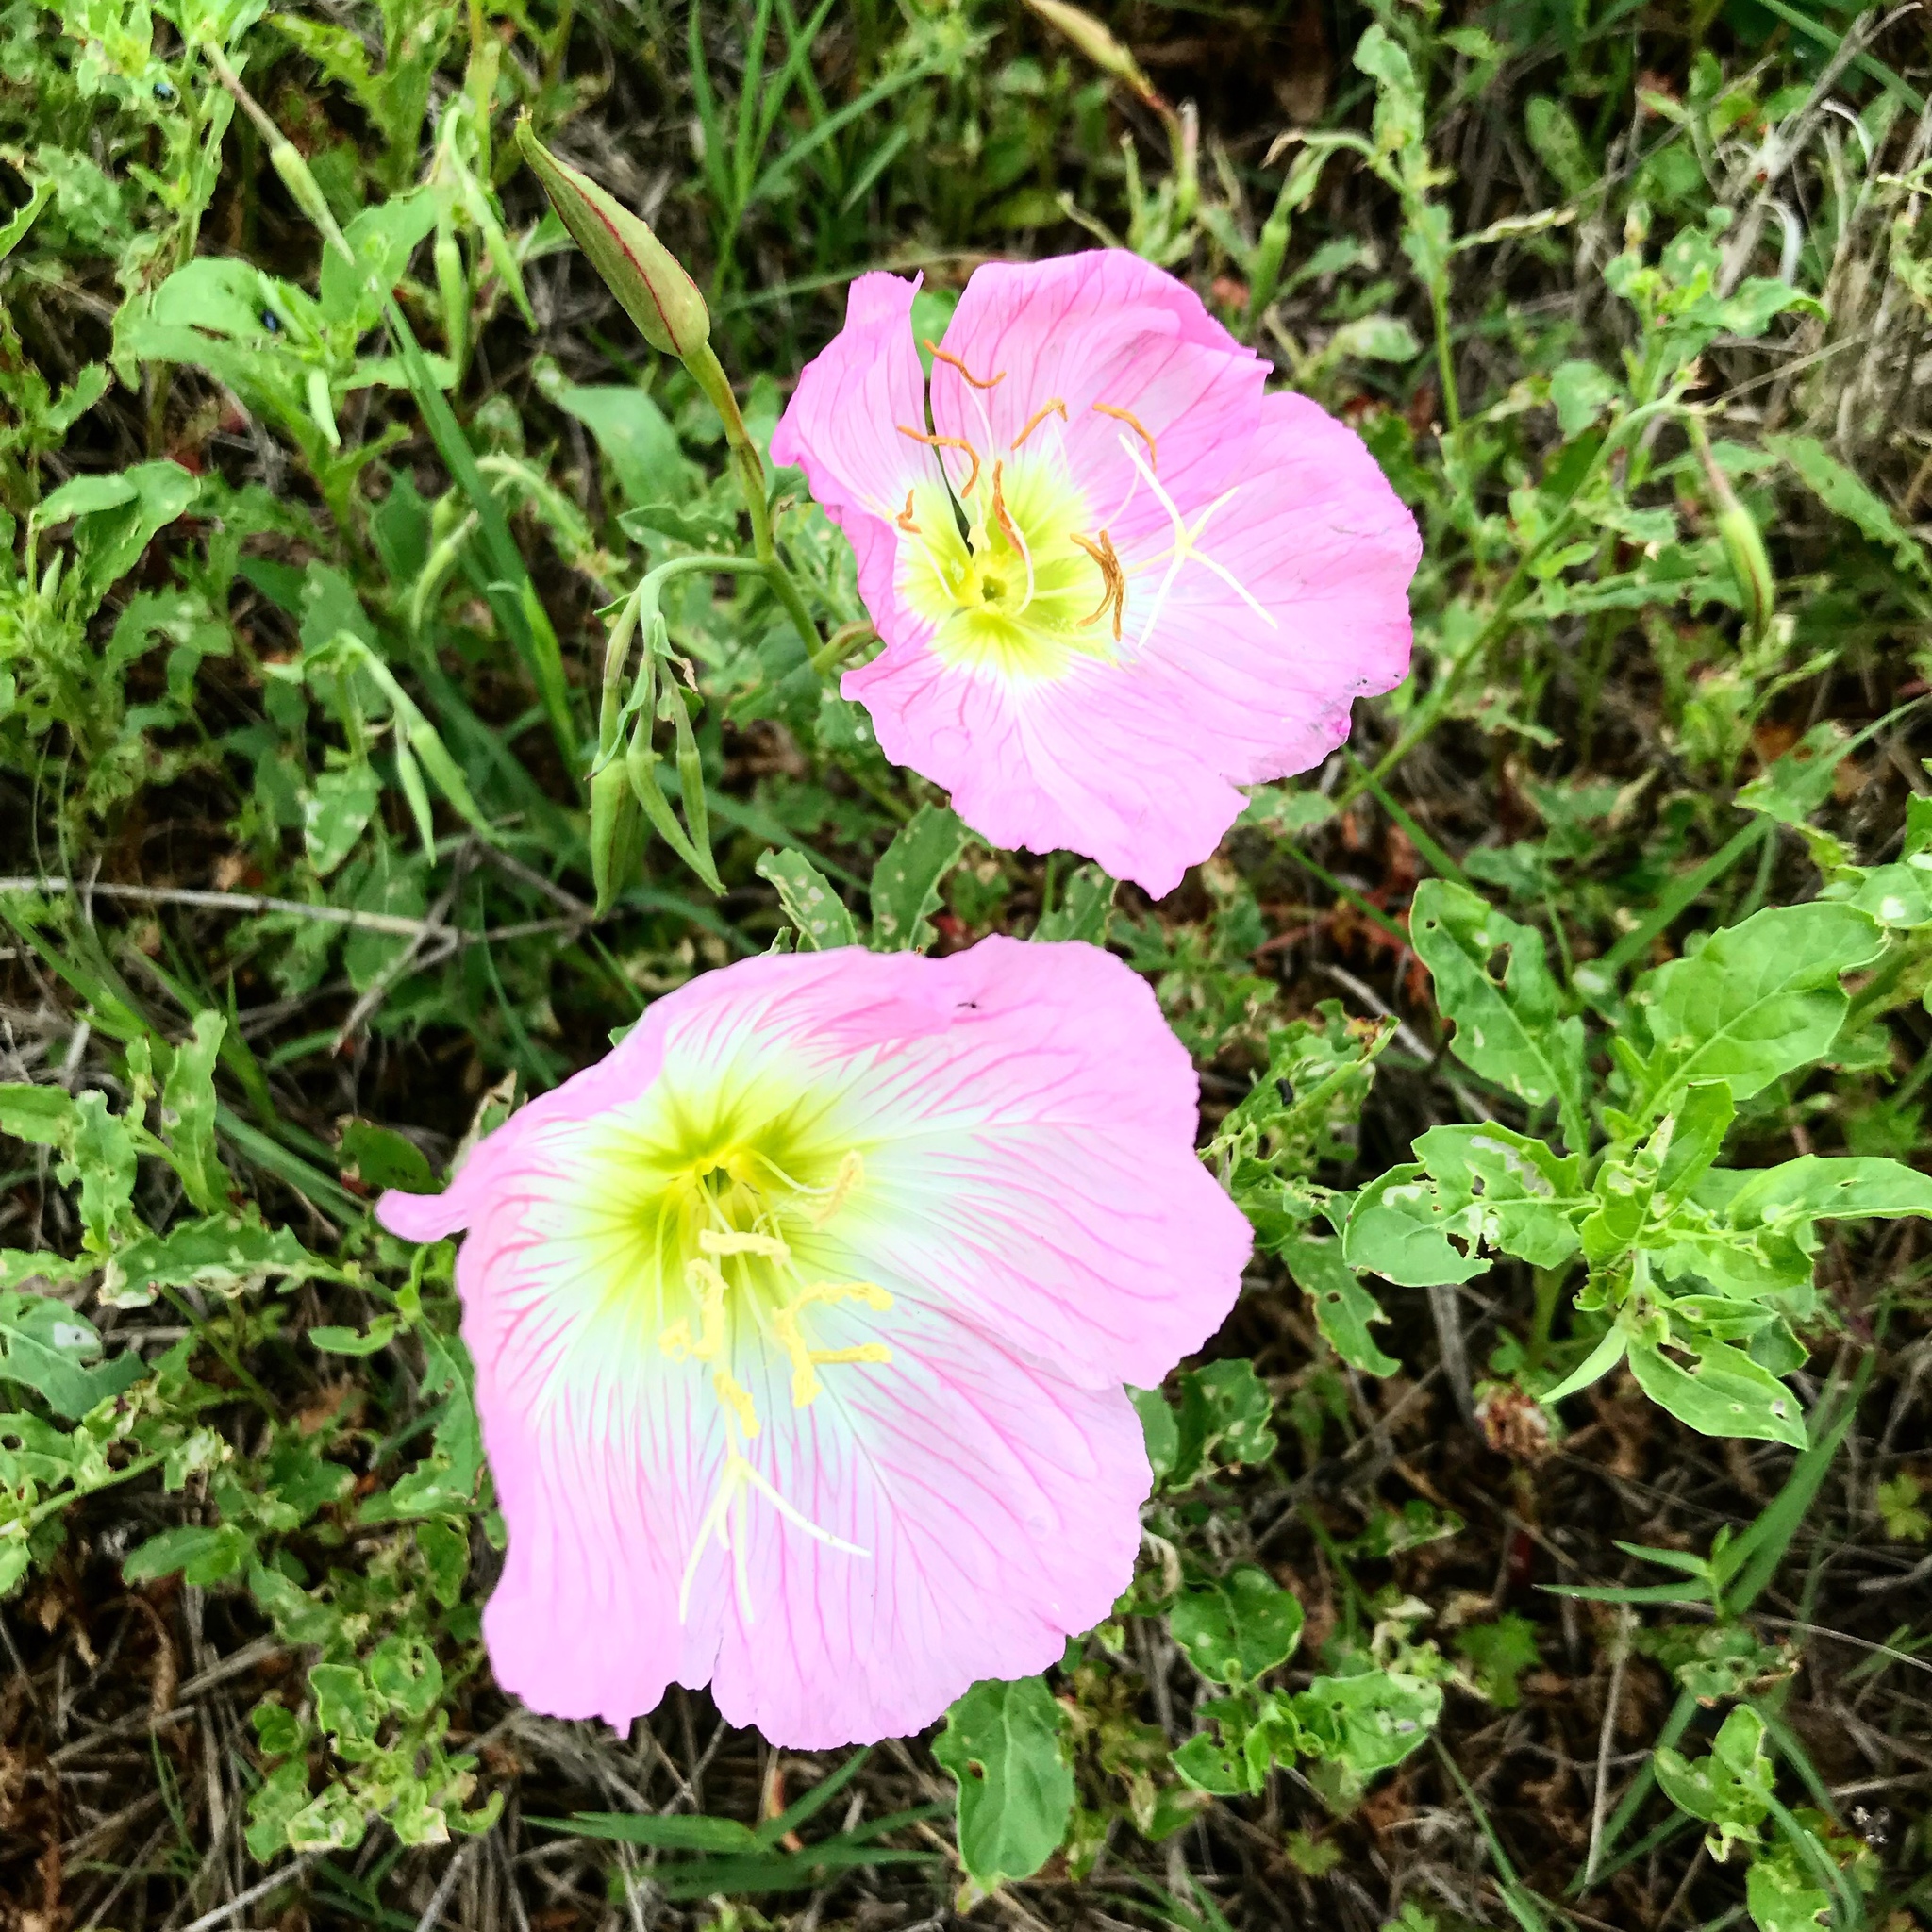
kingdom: Plantae
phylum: Tracheophyta
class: Magnoliopsida
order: Myrtales
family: Onagraceae
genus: Oenothera
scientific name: Oenothera speciosa
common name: White evening-primrose
